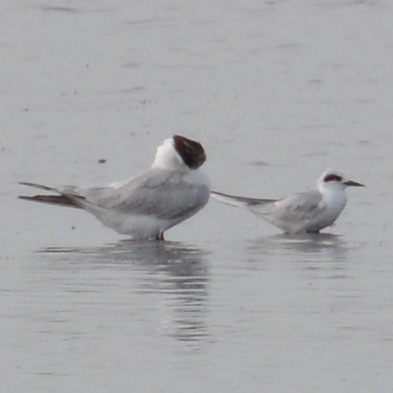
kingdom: Animalia
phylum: Chordata
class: Aves
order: Charadriiformes
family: Laridae
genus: Sterna
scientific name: Sterna forsteri
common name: Forster's tern
